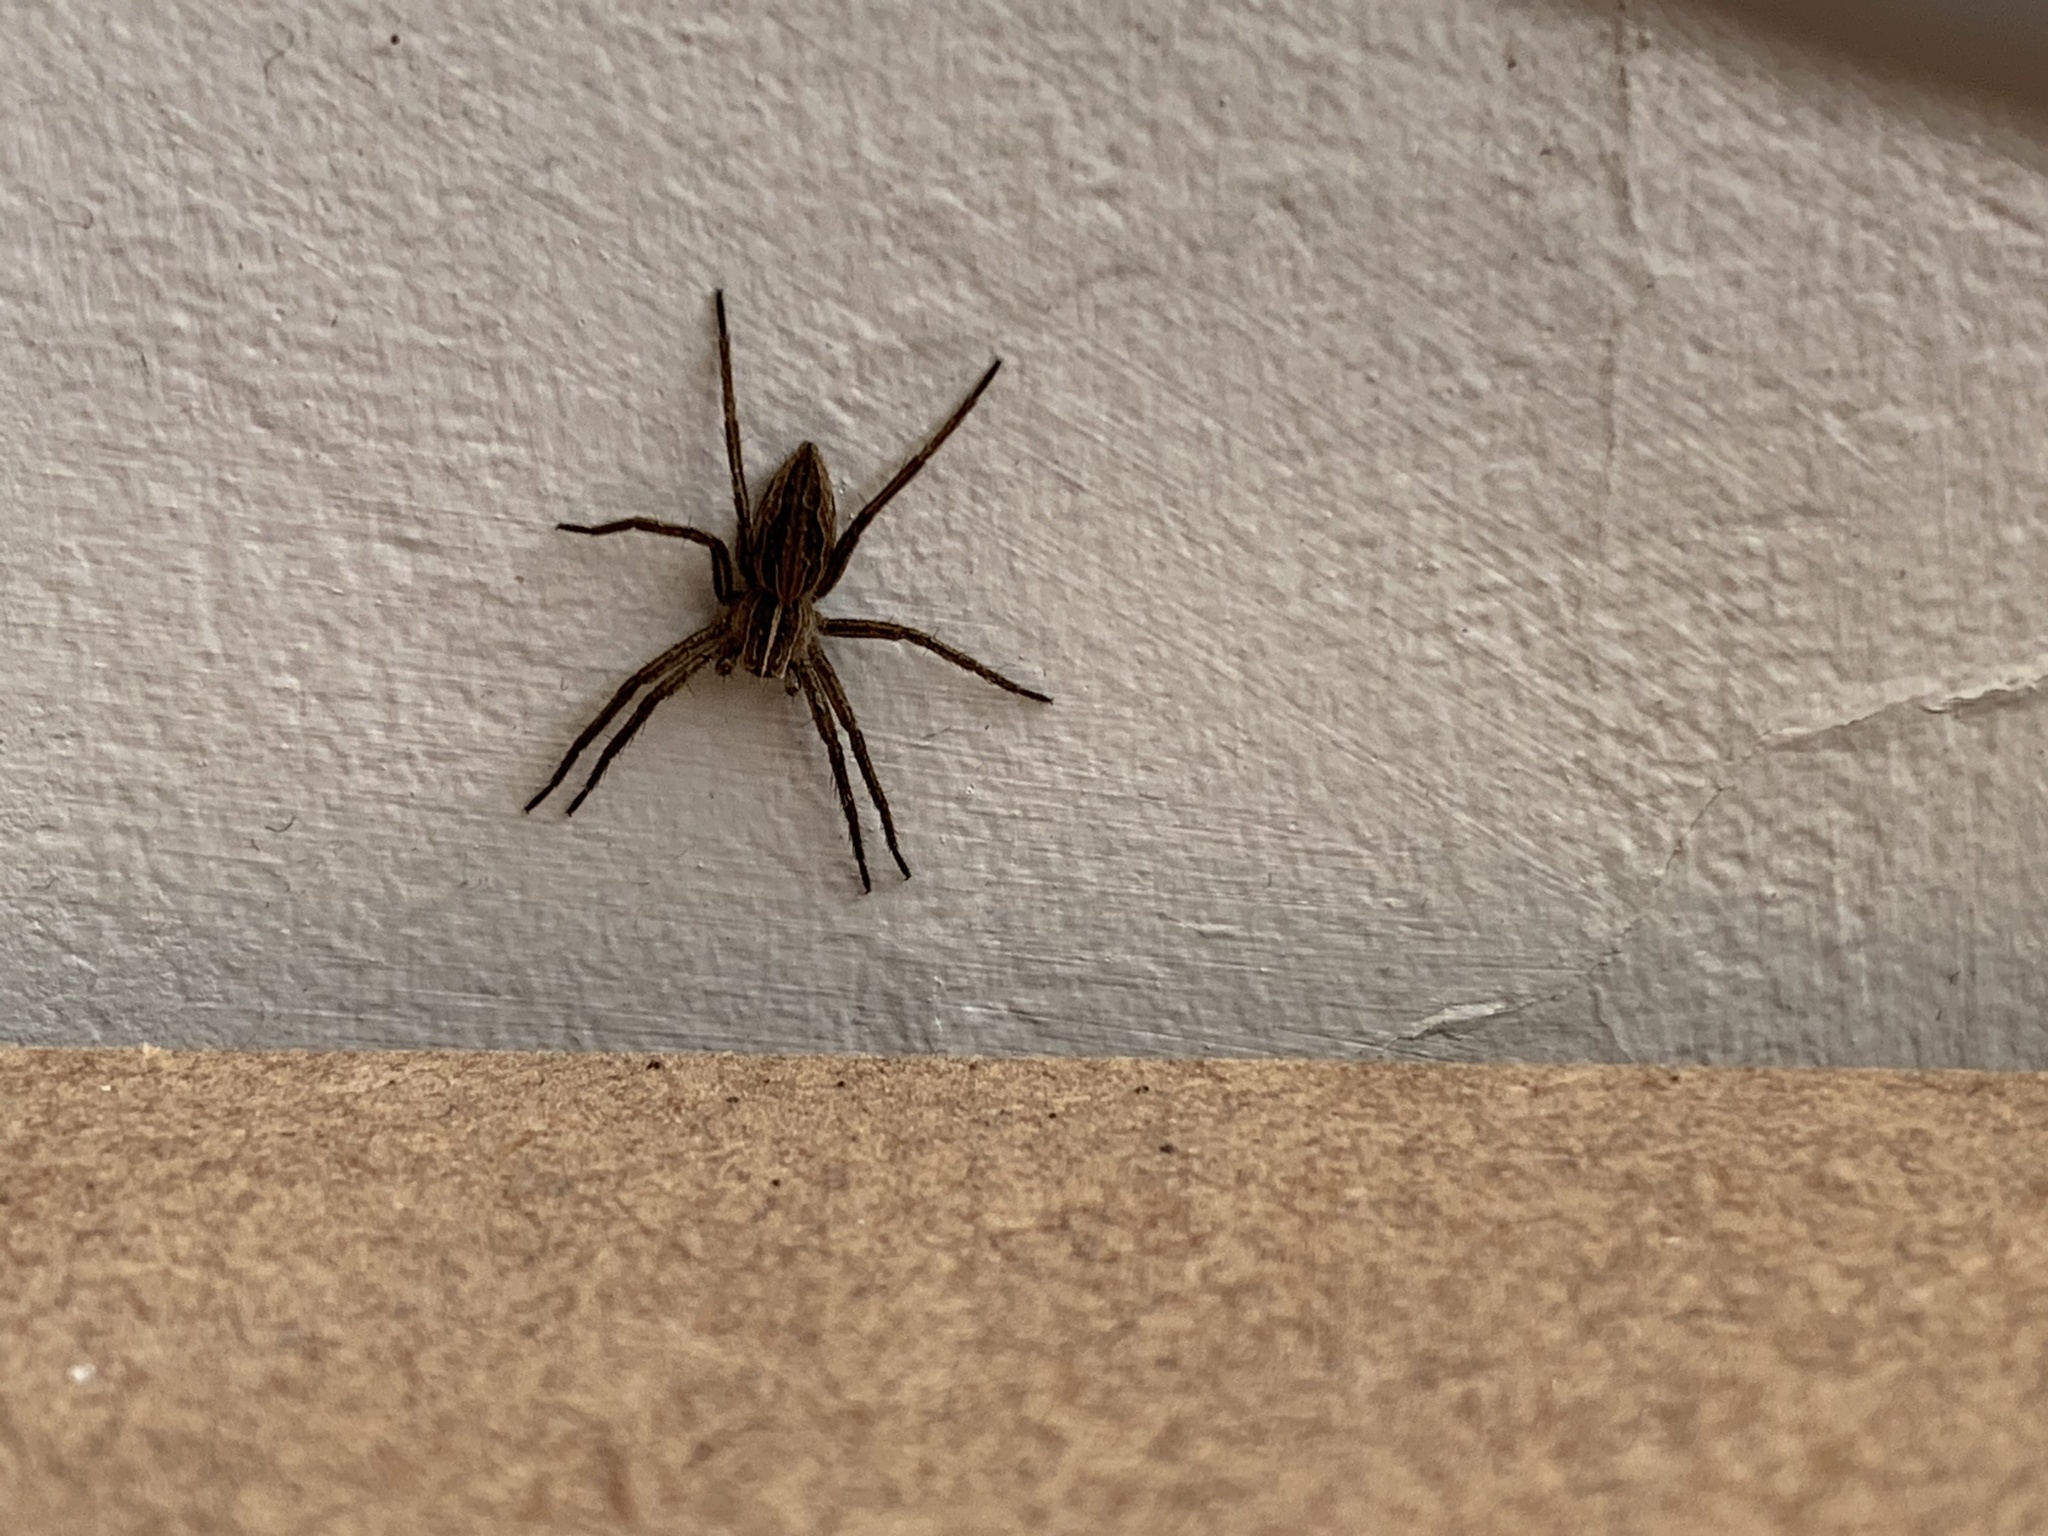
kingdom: Animalia
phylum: Arthropoda
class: Arachnida
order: Araneae
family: Pisauridae
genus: Pisaura
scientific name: Pisaura mirabilis
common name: Tent spider
